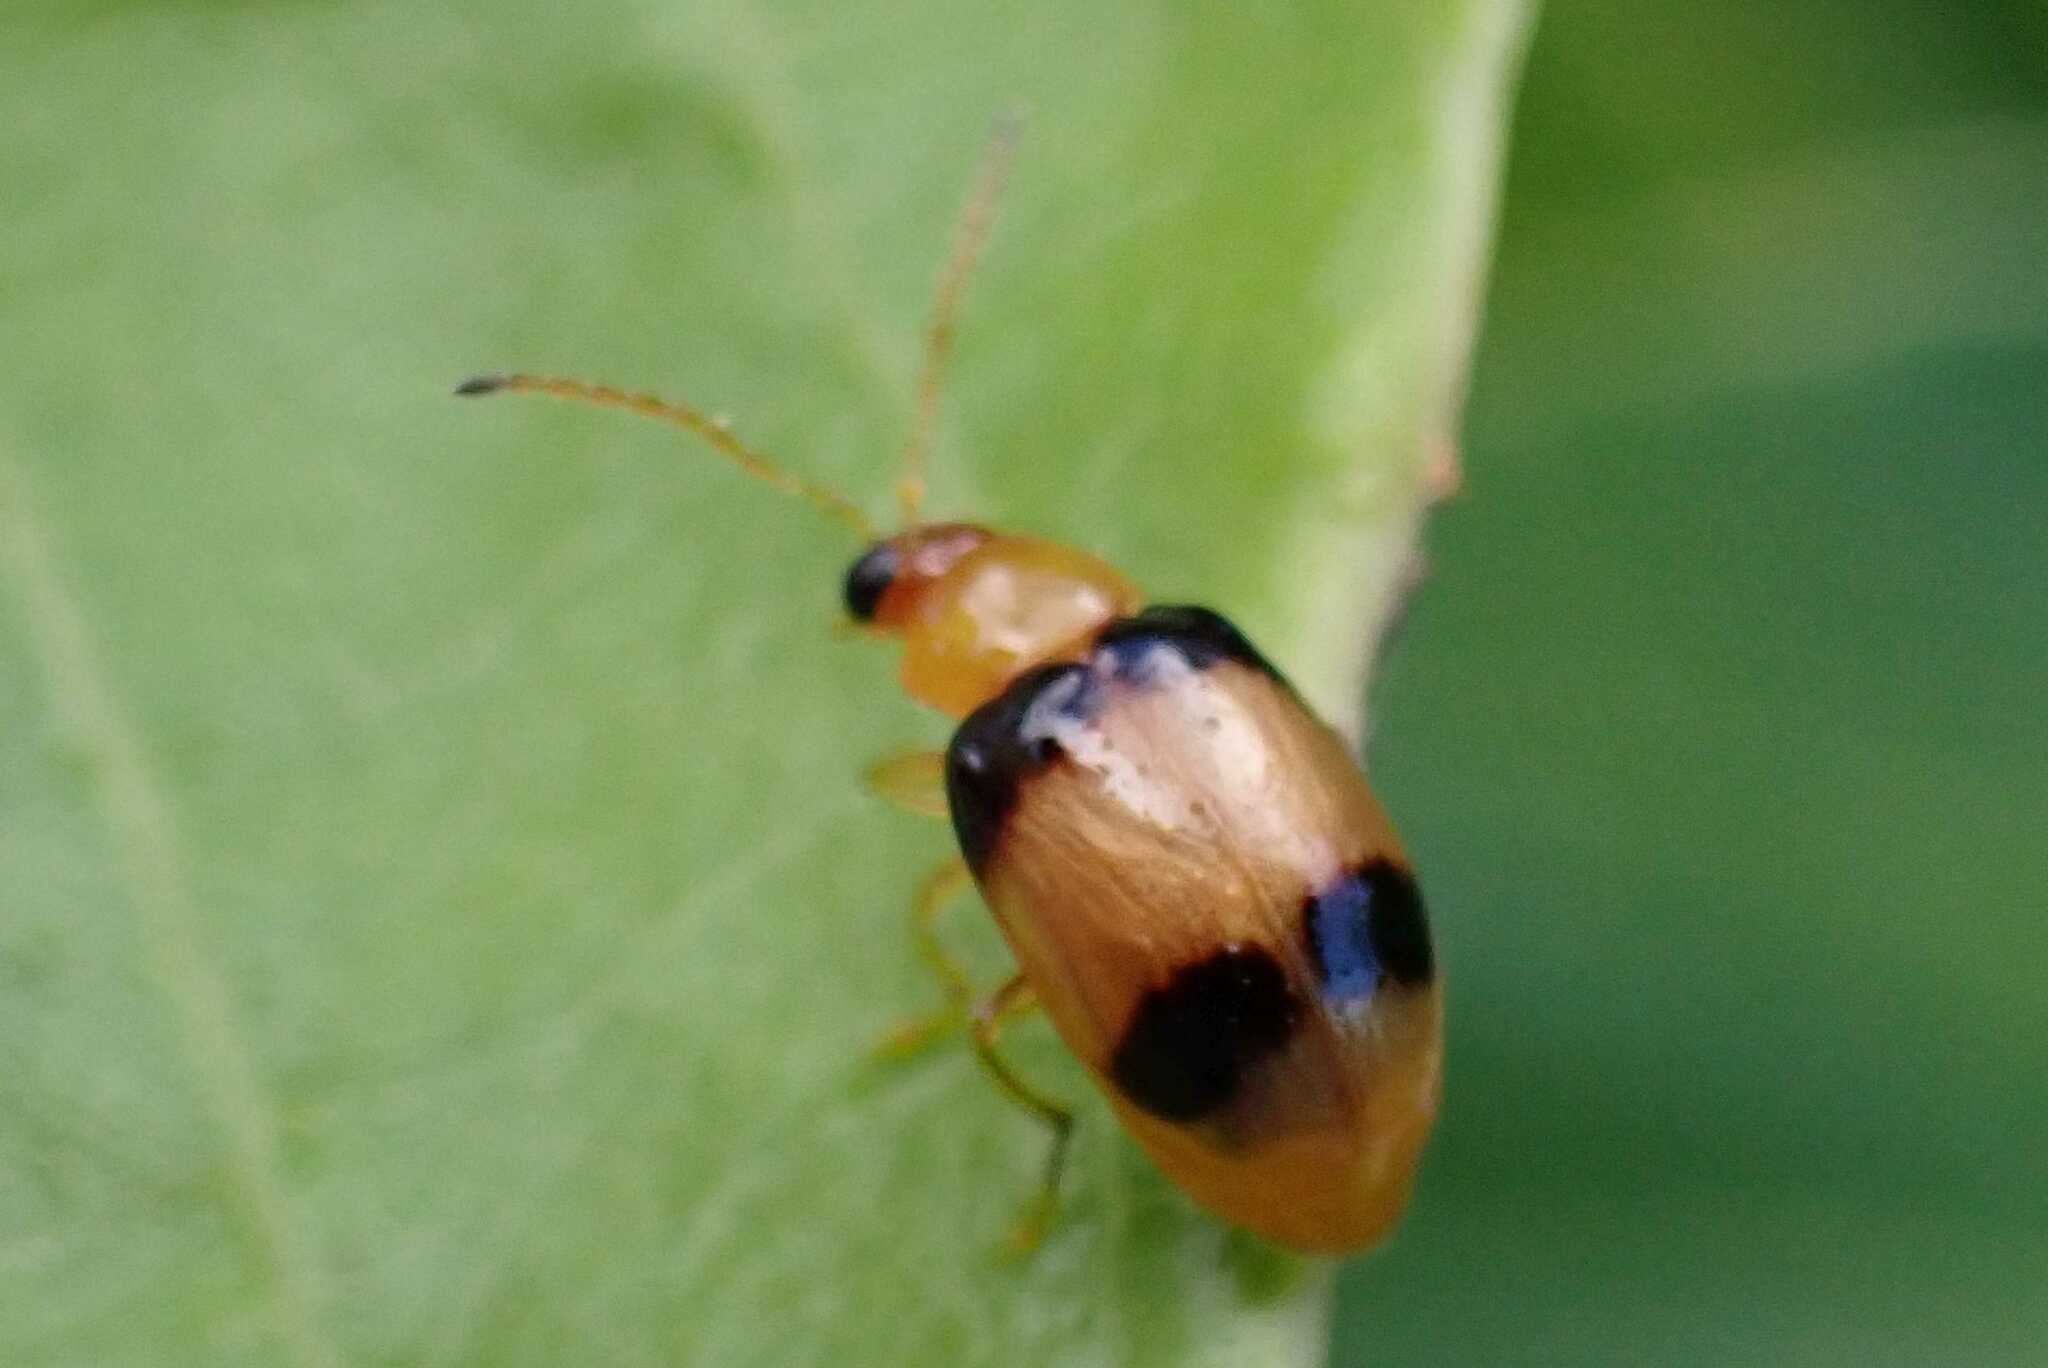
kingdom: Animalia
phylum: Arthropoda
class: Insecta
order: Coleoptera
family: Chrysomelidae
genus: Monolepta
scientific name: Monolepta
